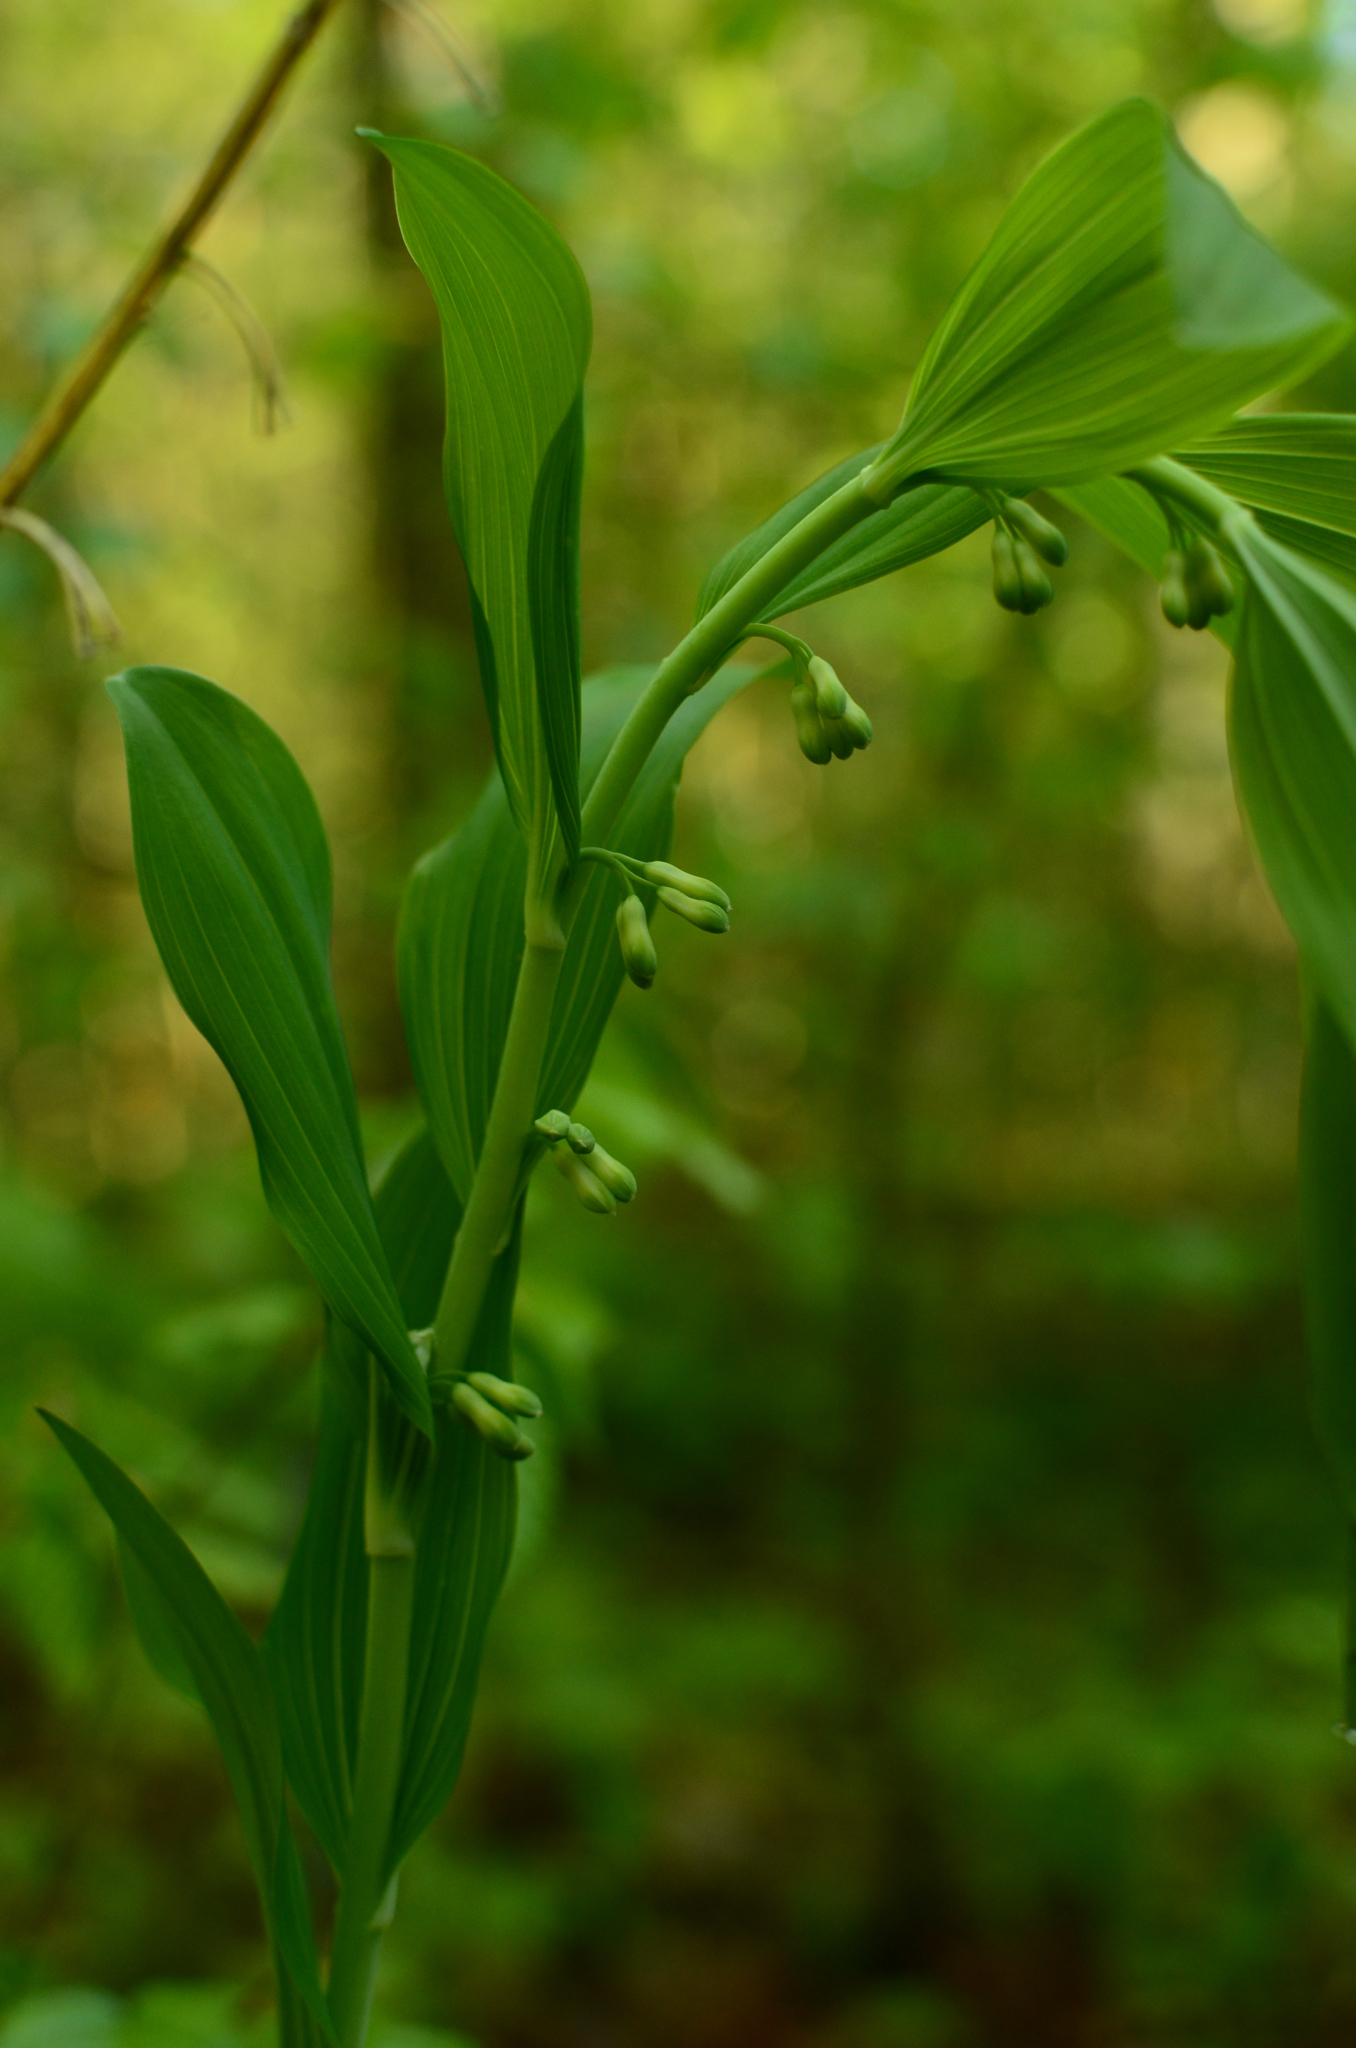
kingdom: Plantae
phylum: Tracheophyta
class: Liliopsida
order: Asparagales
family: Asparagaceae
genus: Polygonatum
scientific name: Polygonatum
